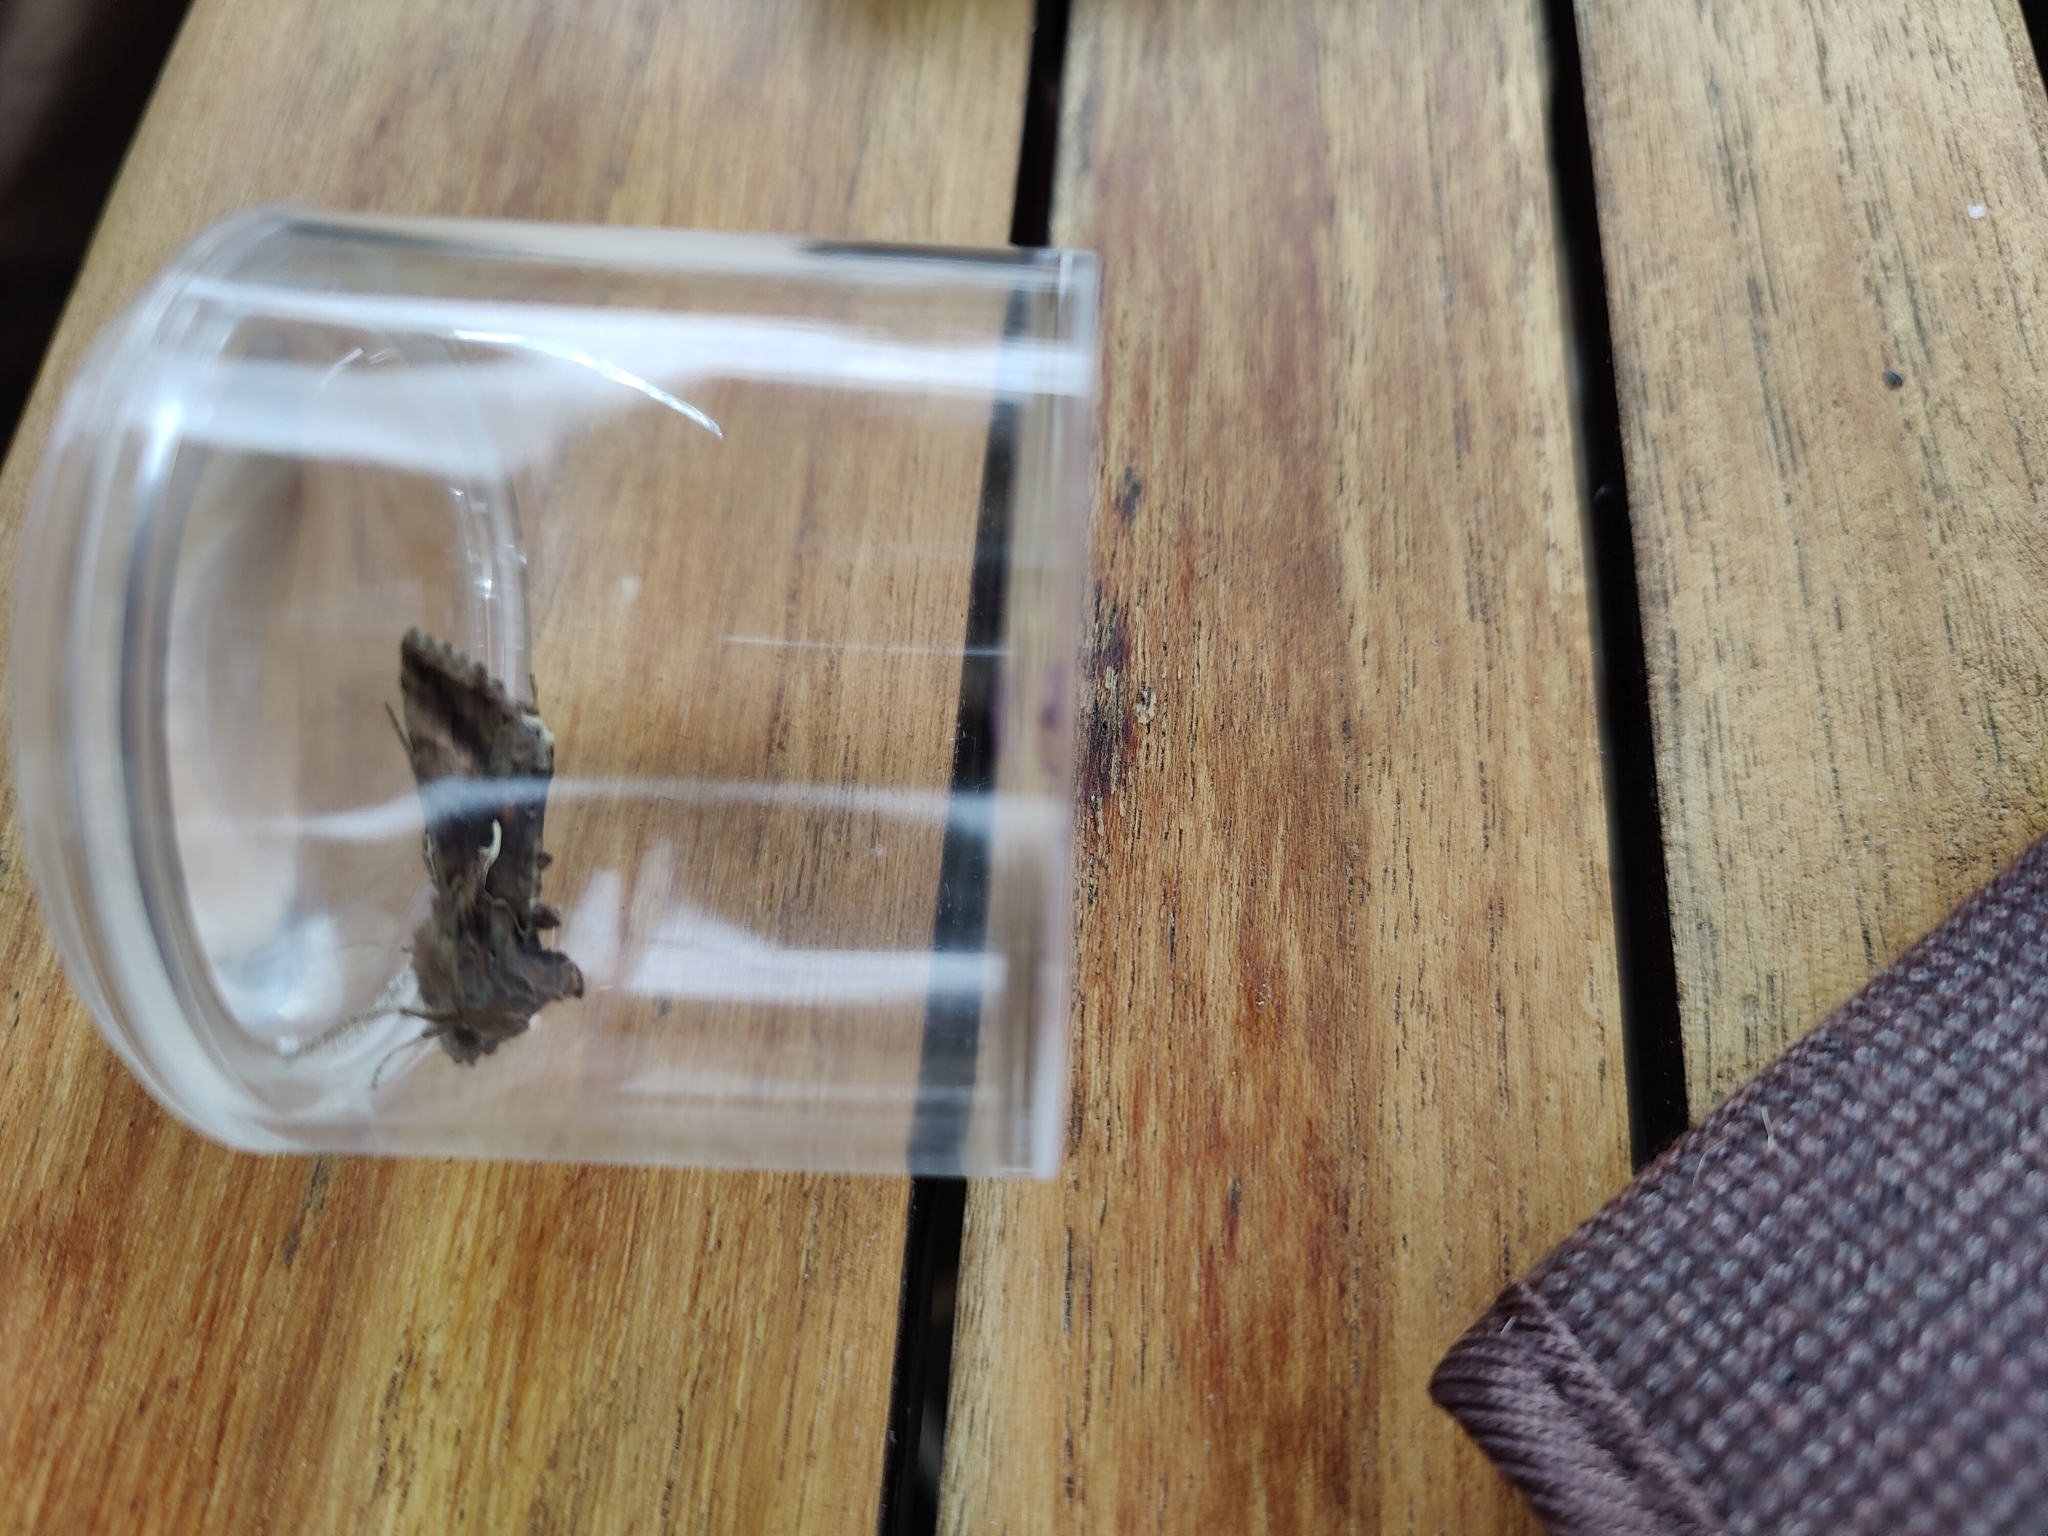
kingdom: Animalia
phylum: Arthropoda
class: Insecta
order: Lepidoptera
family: Noctuidae
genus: Autographa
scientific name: Autographa gamma
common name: Silver y
